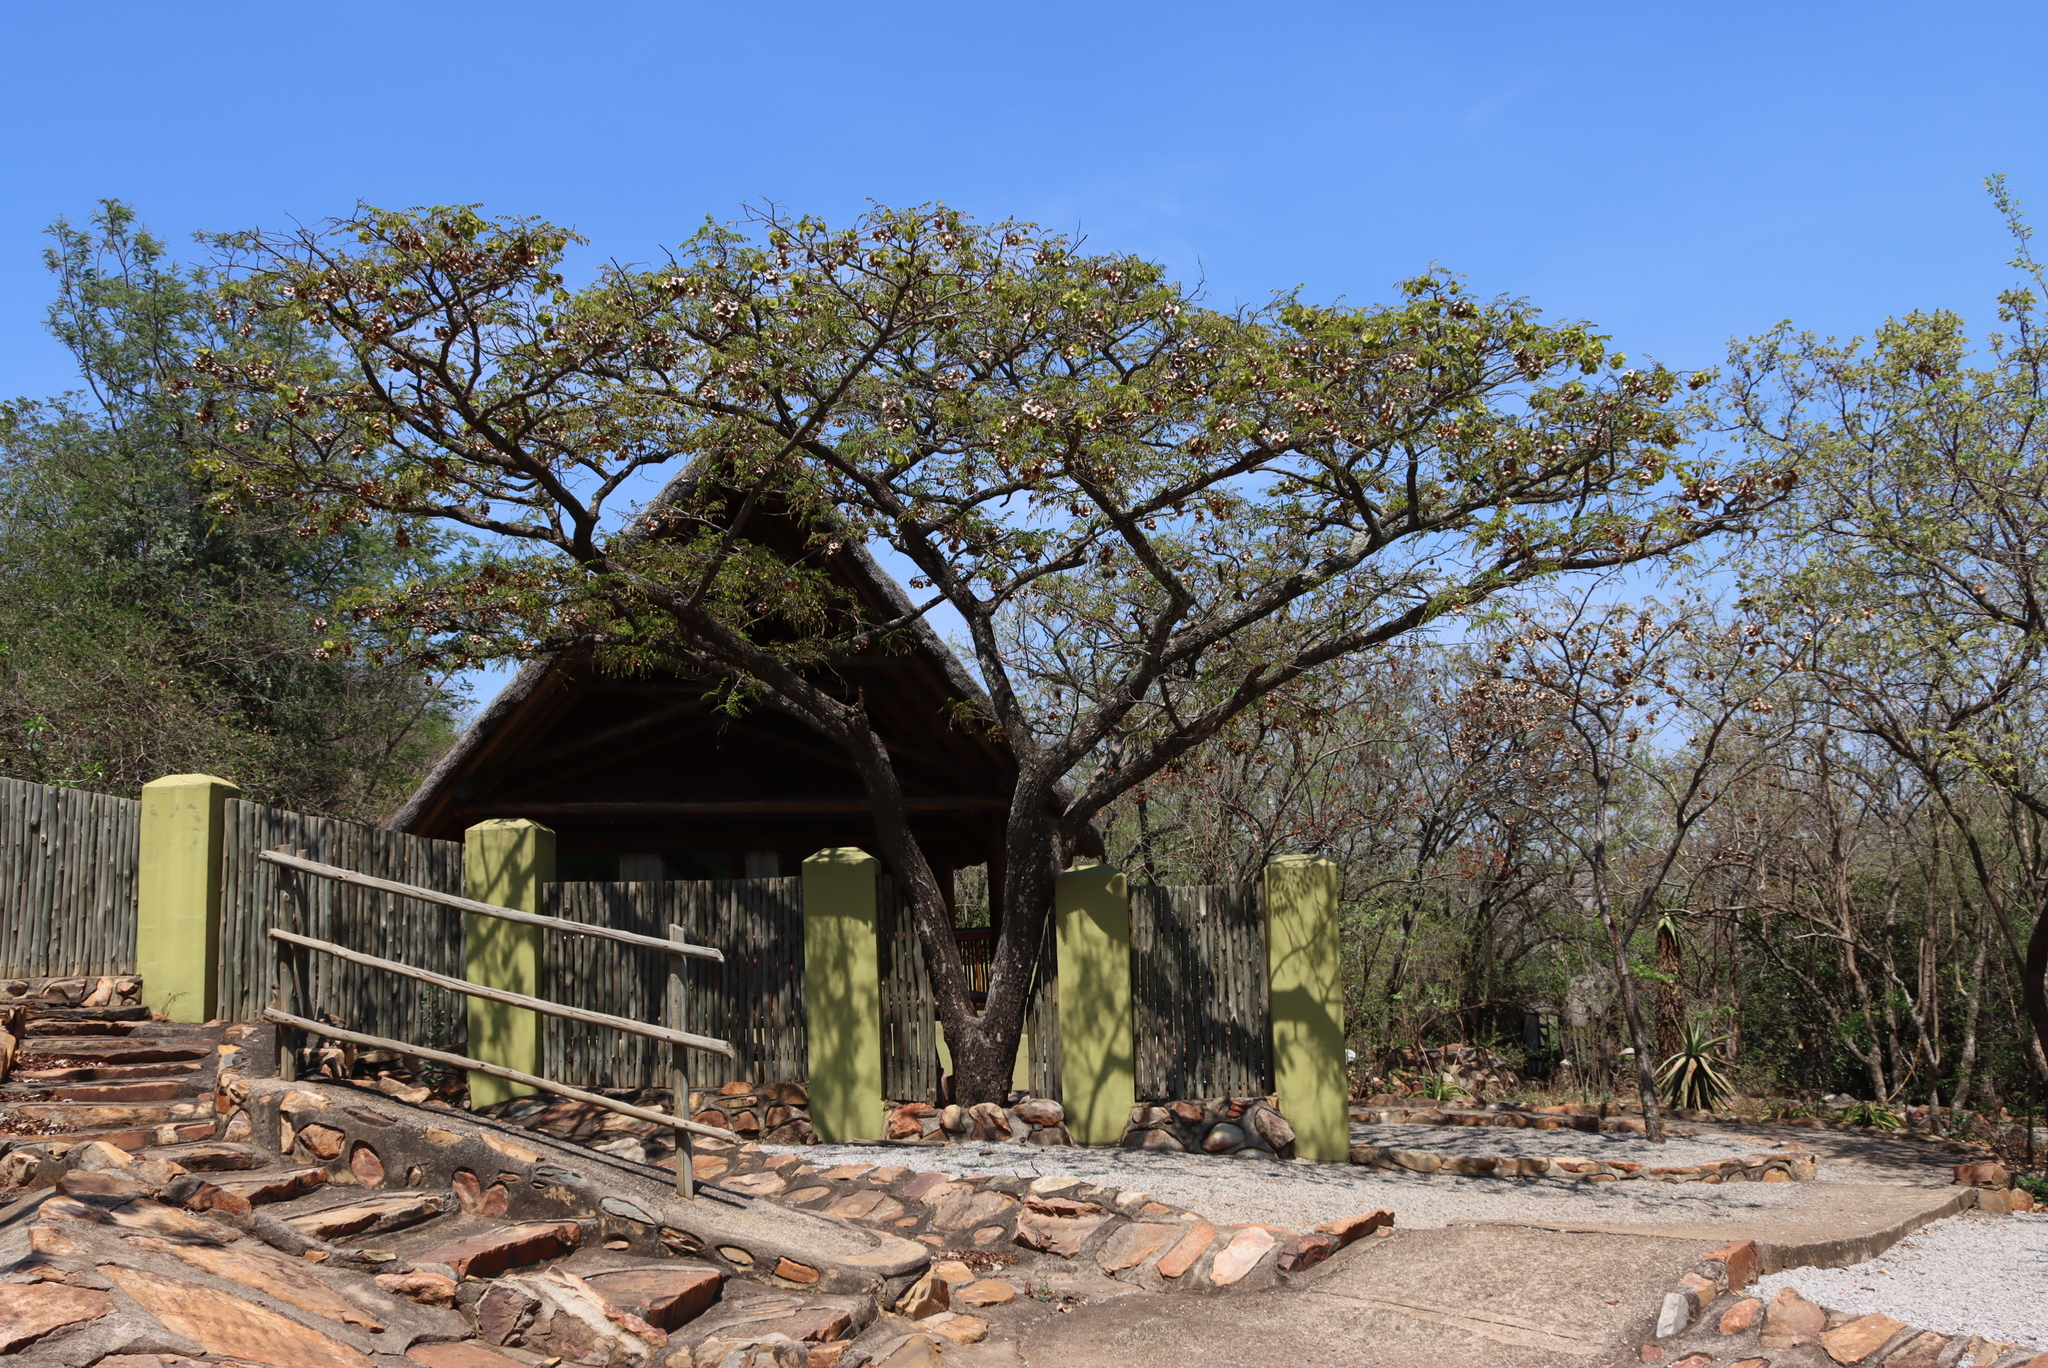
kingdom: Plantae
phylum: Tracheophyta
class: Magnoliopsida
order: Fabales
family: Fabaceae
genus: Pterocarpus
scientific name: Pterocarpus angolensis
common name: Bloodwood tree
